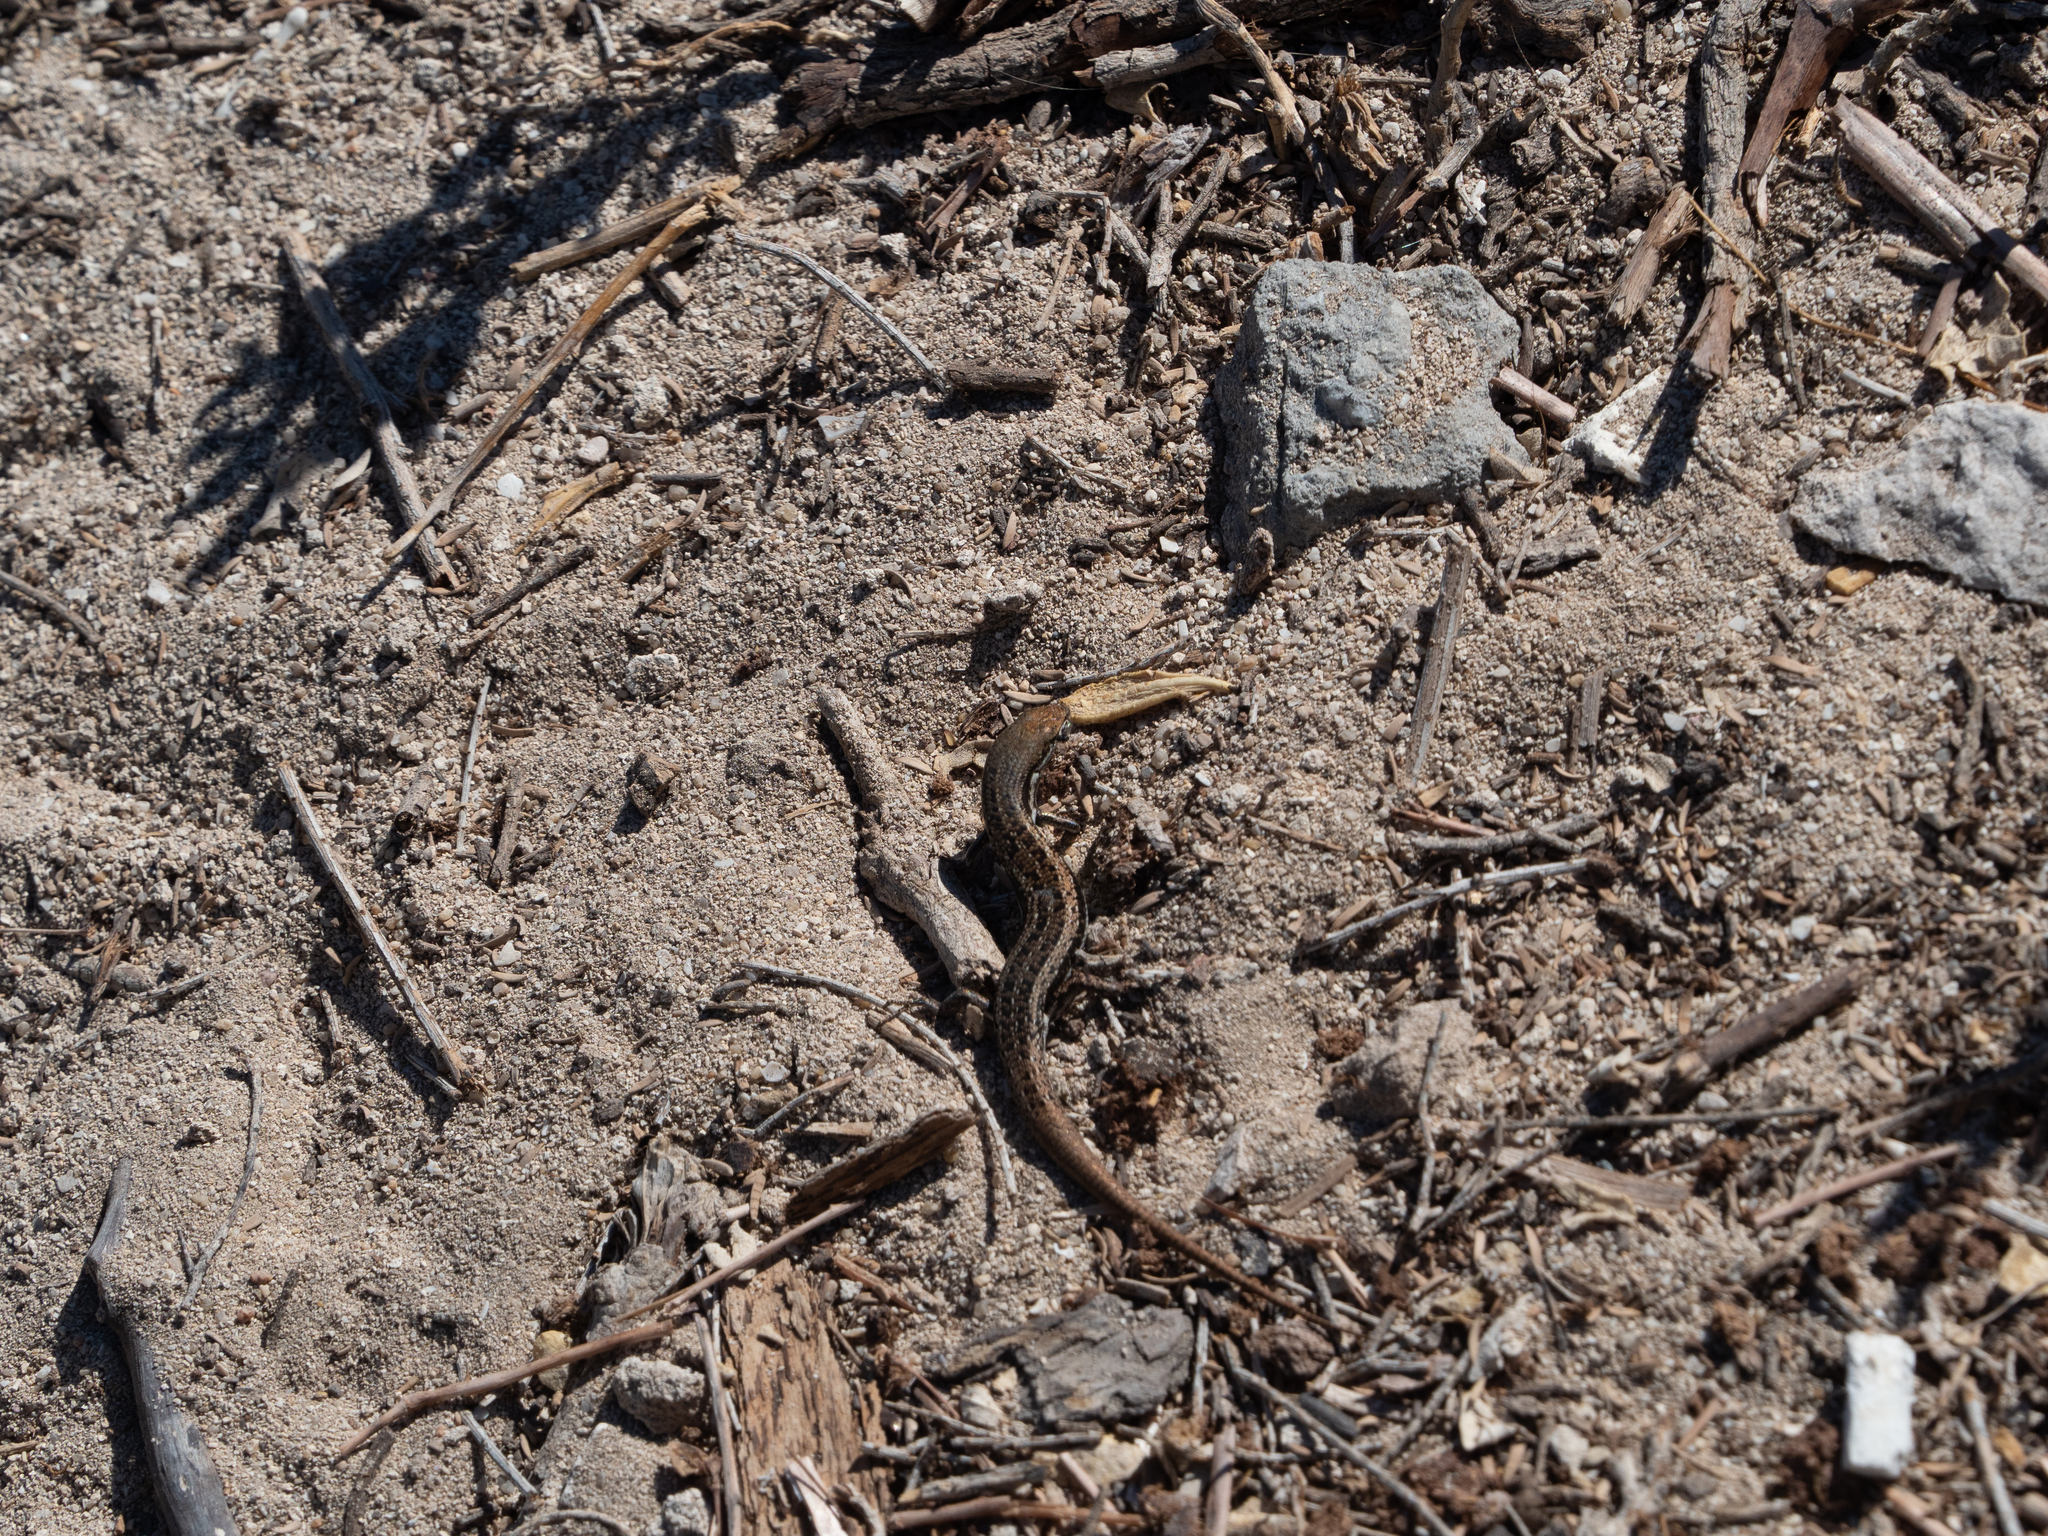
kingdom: Animalia
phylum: Chordata
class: Squamata
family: Scincidae
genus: Morethia
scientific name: Morethia lineoocellata
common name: West coast morethia skink
